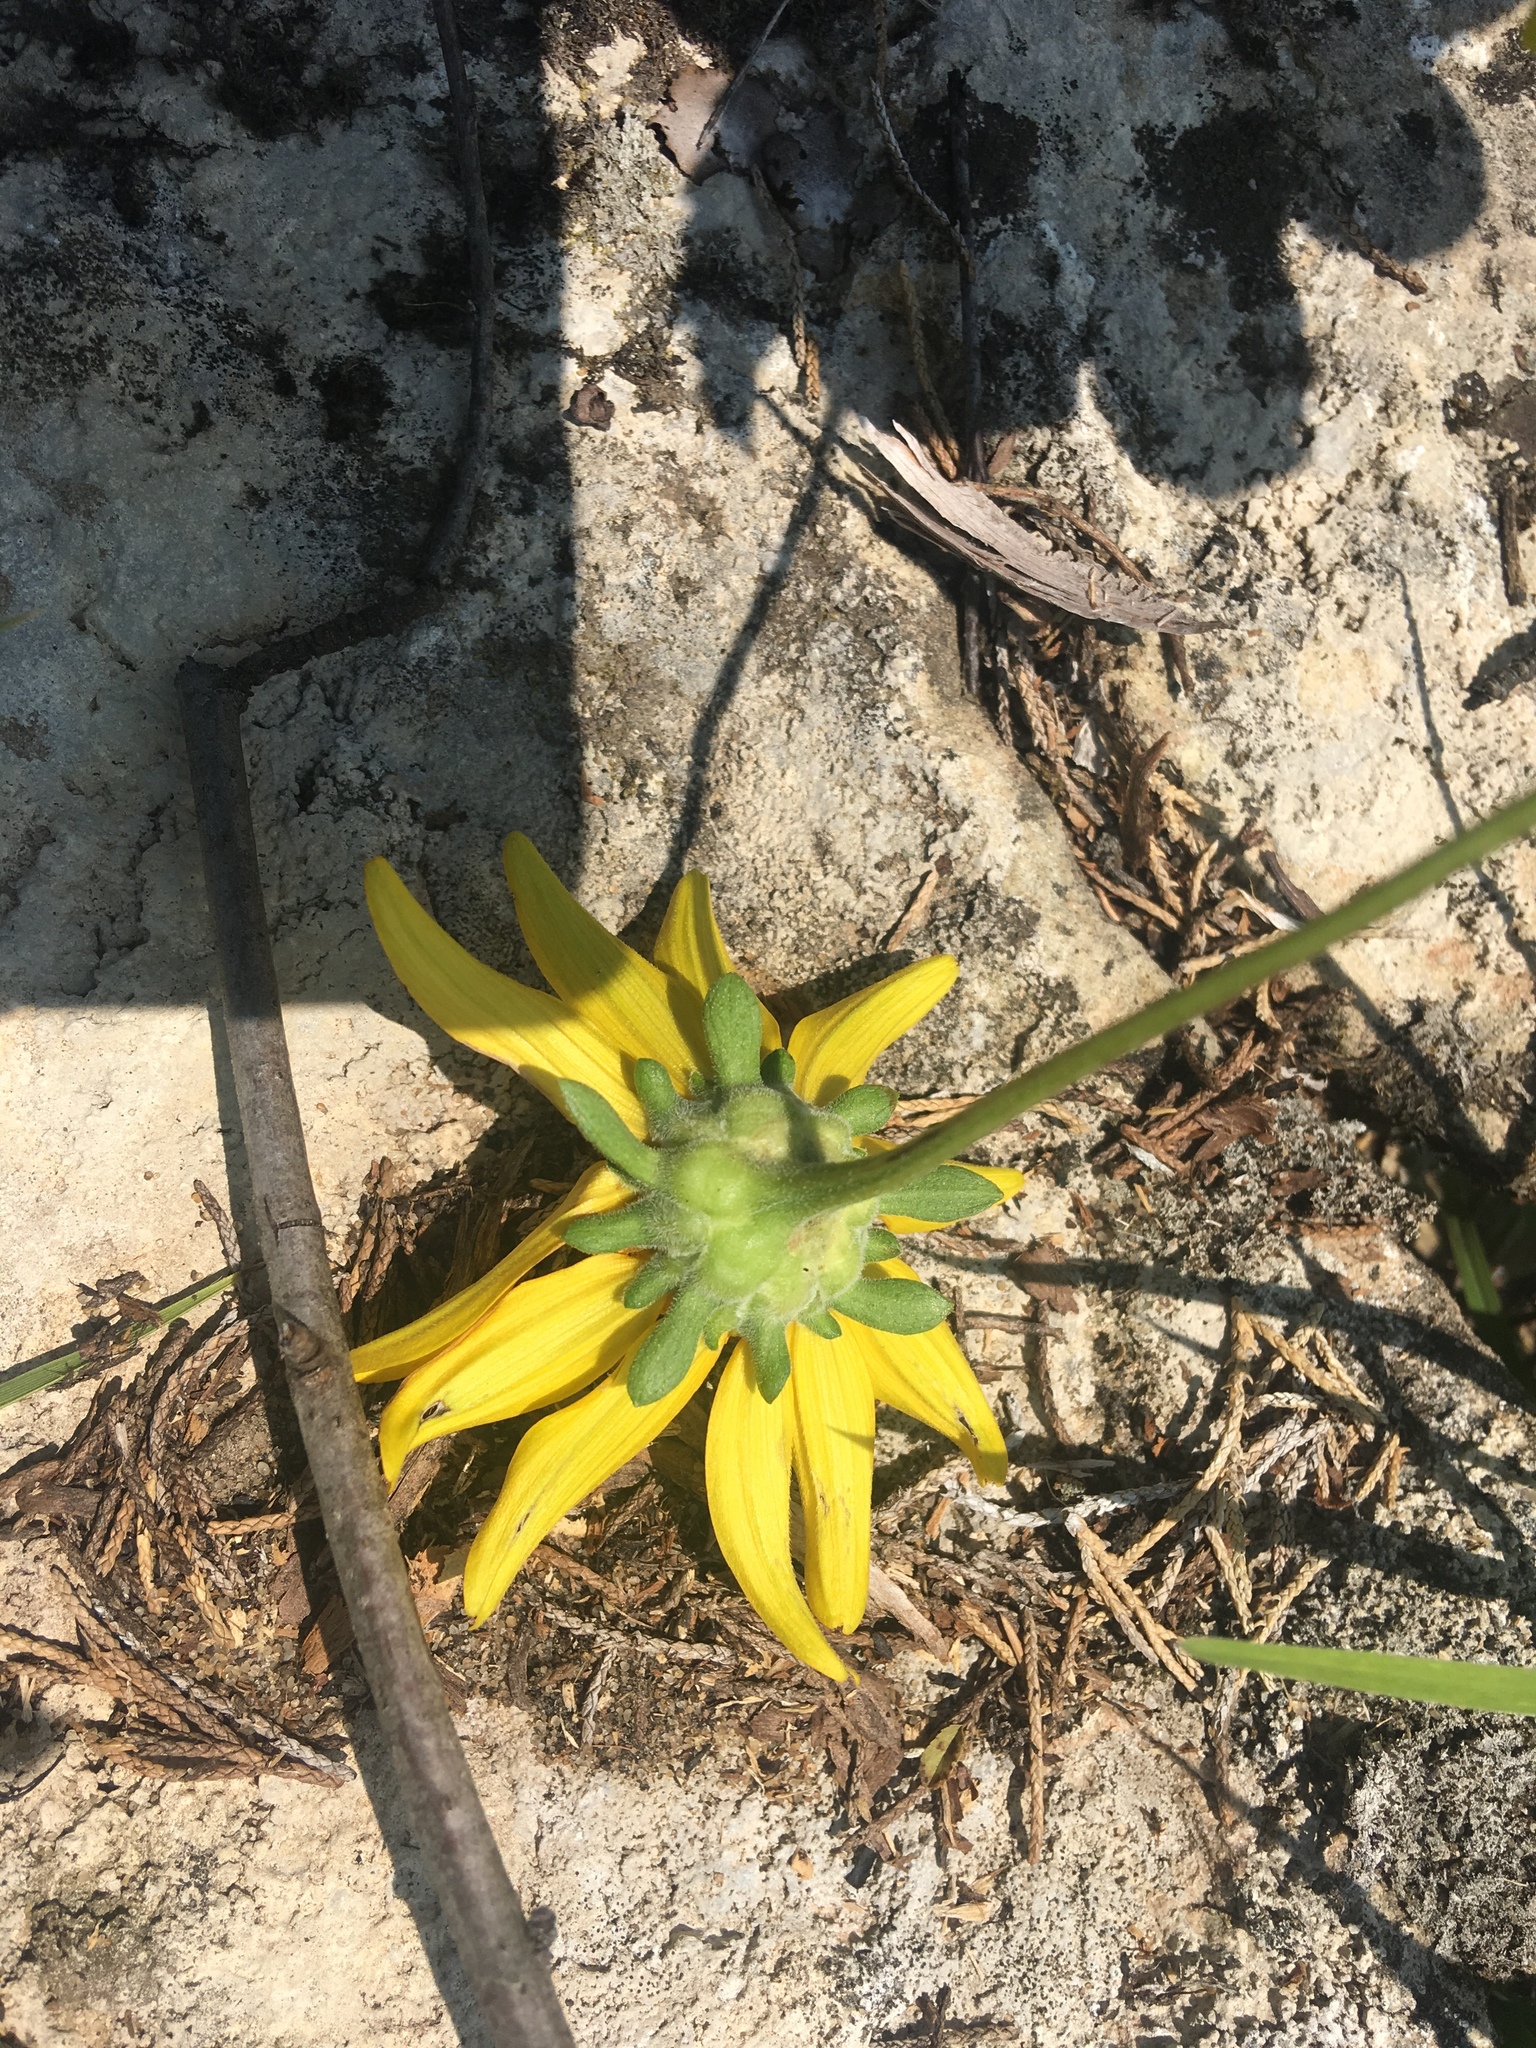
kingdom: Plantae
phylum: Tracheophyta
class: Magnoliopsida
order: Asterales
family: Asteraceae
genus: Heliopsis
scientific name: Heliopsis helianthoides
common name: False sunflower
